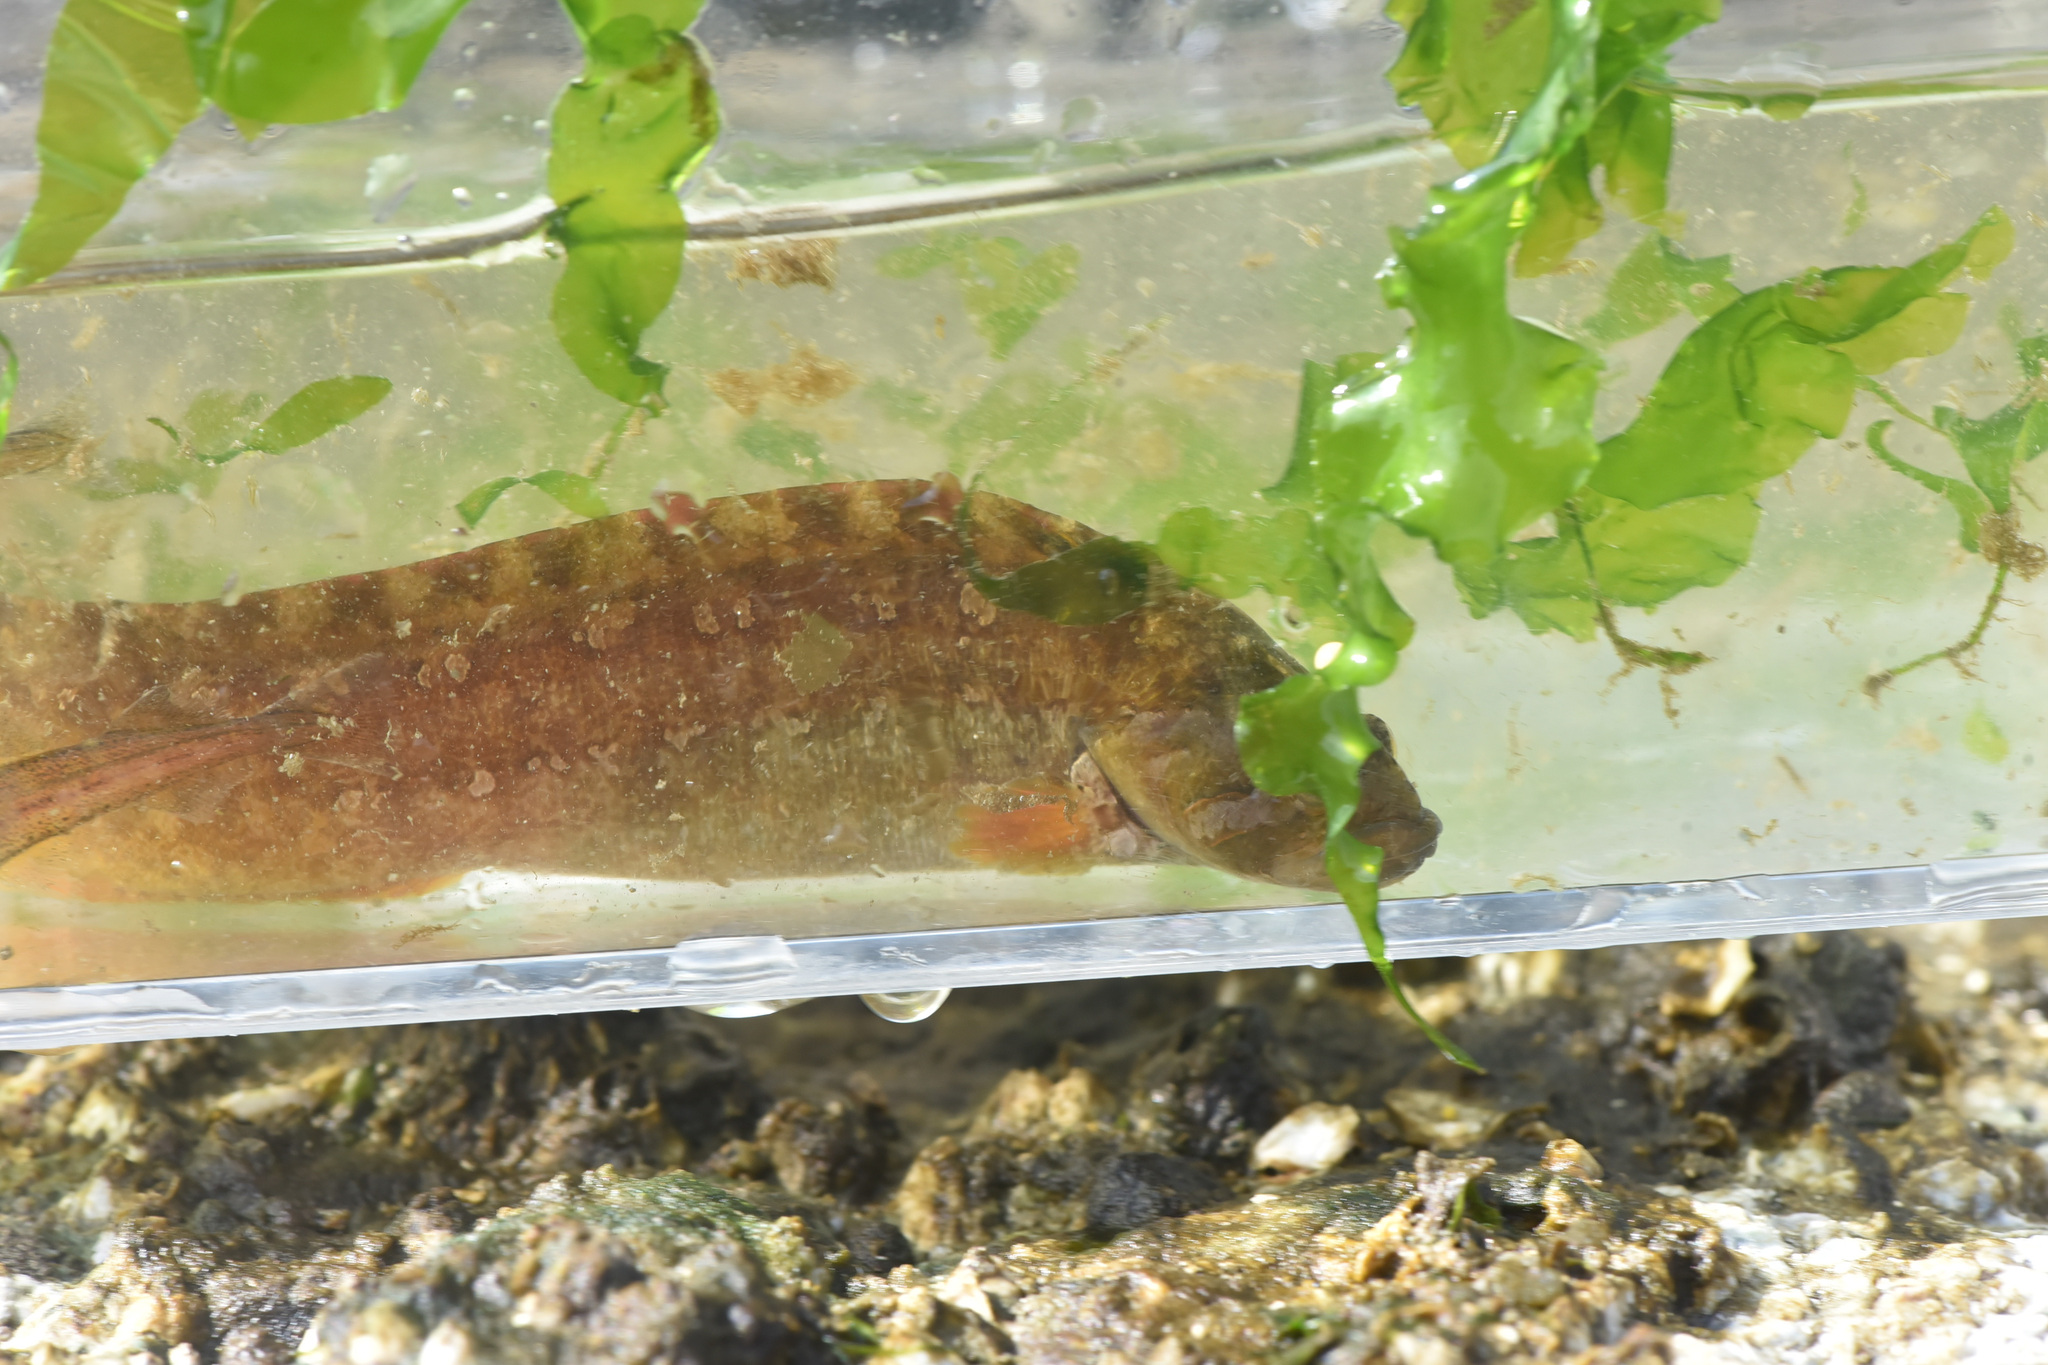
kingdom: Animalia
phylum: Chordata
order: Perciformes
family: Stichaeidae
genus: Anoplarchus
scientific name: Anoplarchus purpurescens
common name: High cockscomb
